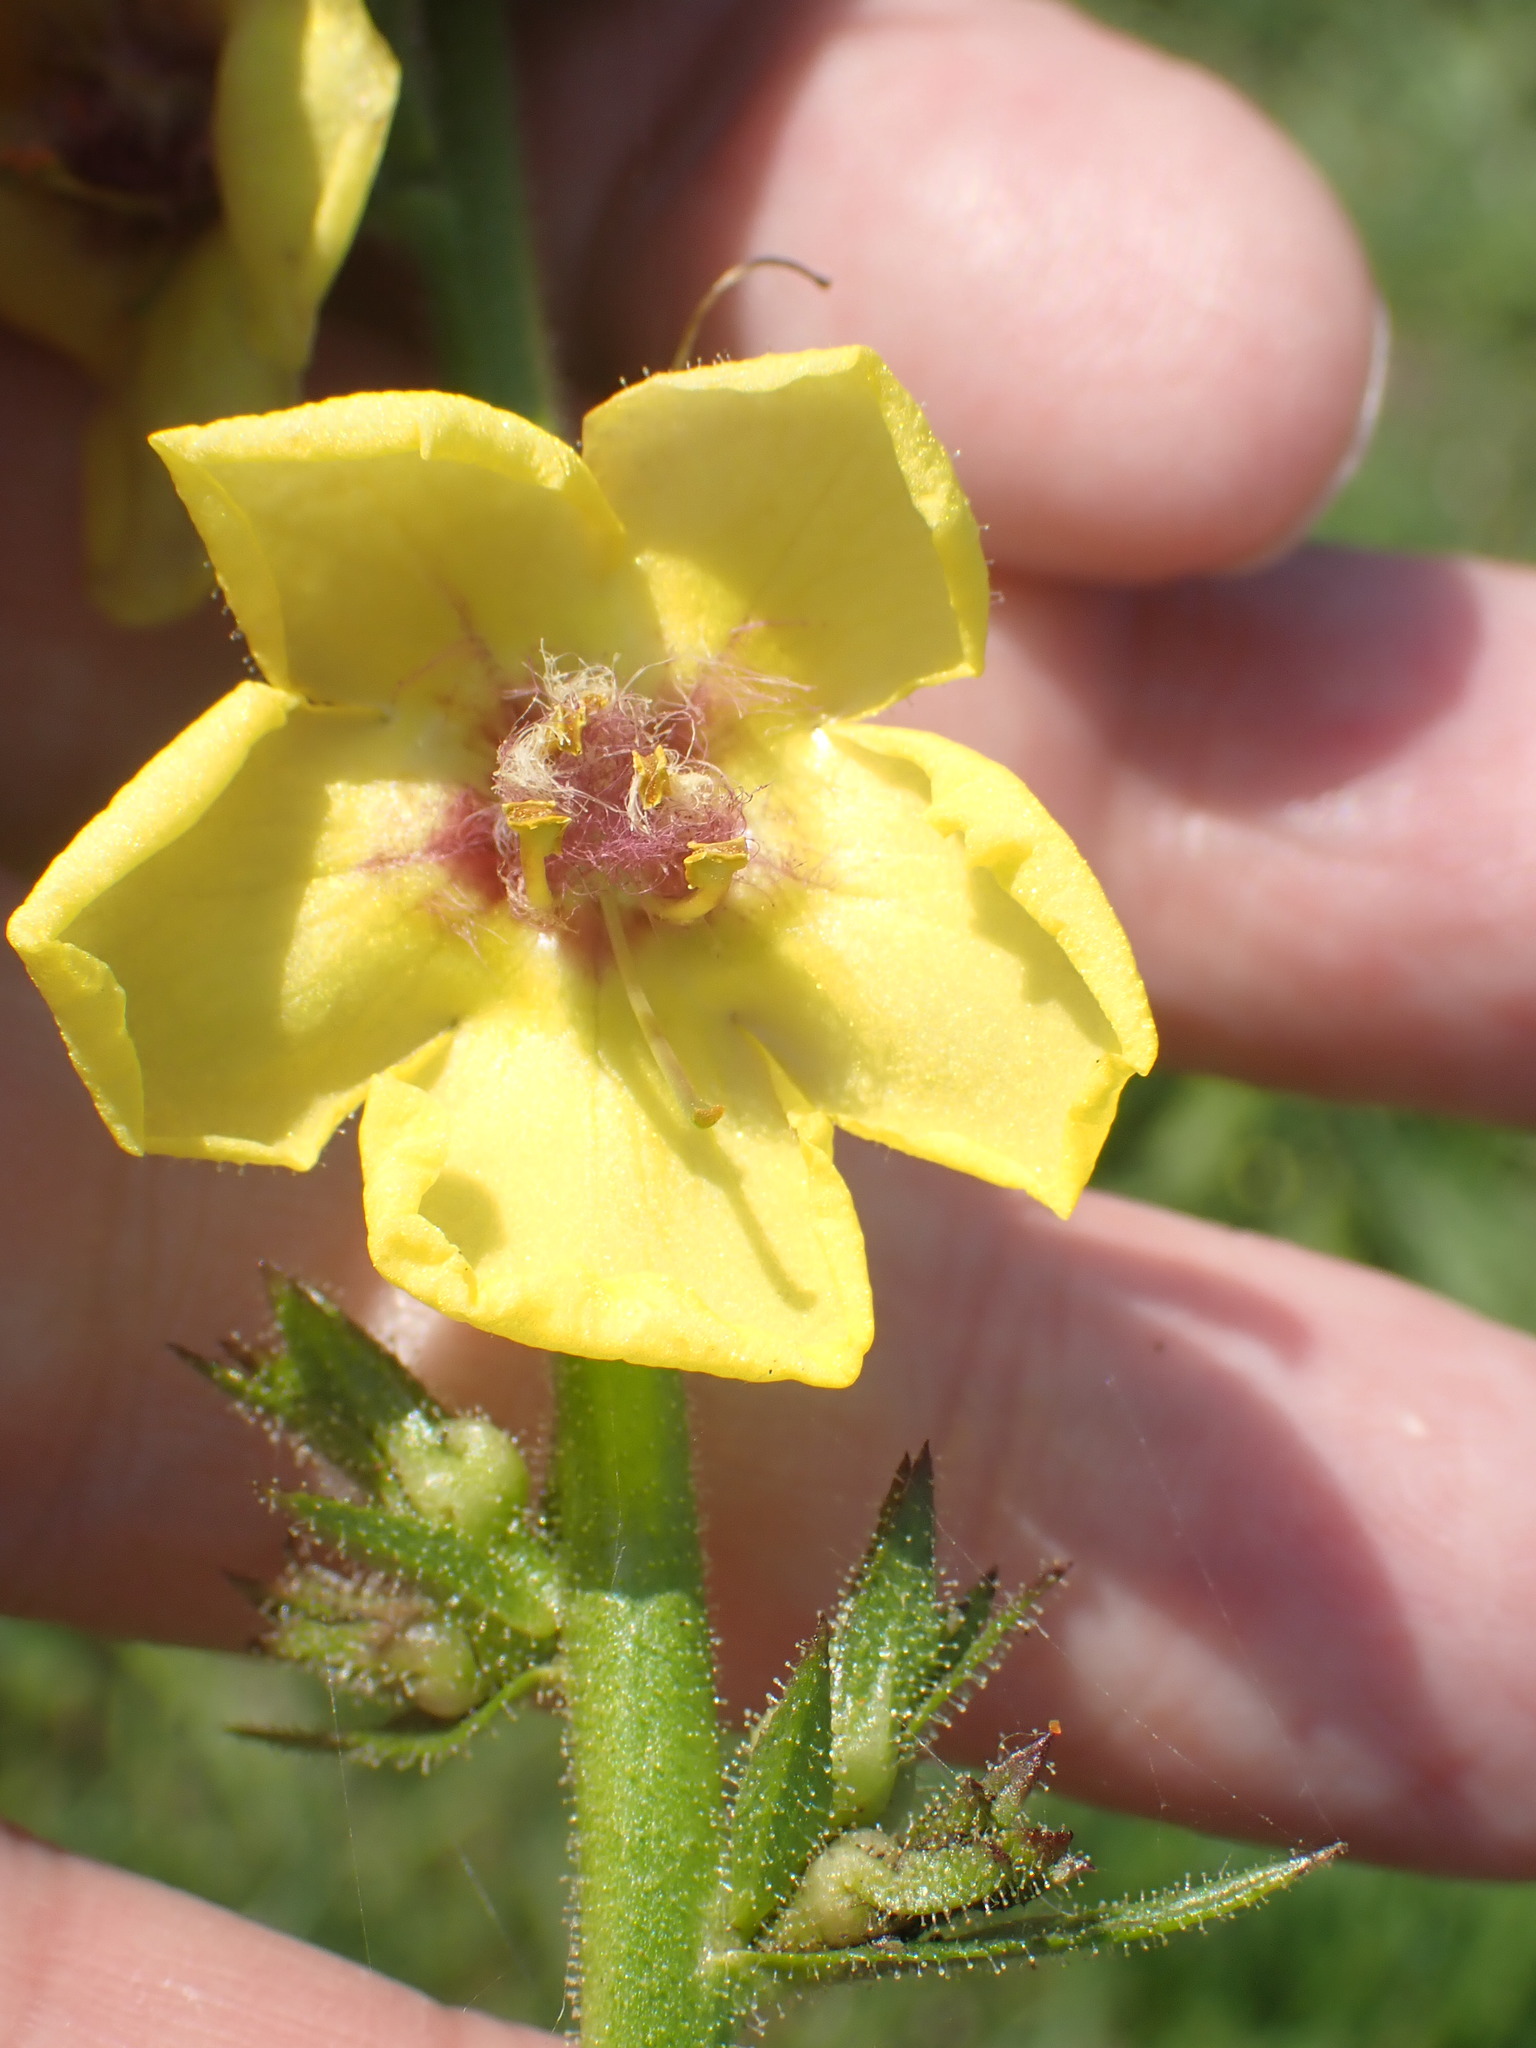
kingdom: Plantae
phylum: Tracheophyta
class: Magnoliopsida
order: Lamiales
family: Scrophulariaceae
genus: Verbascum
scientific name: Verbascum virgatum
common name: Twiggy mullein
